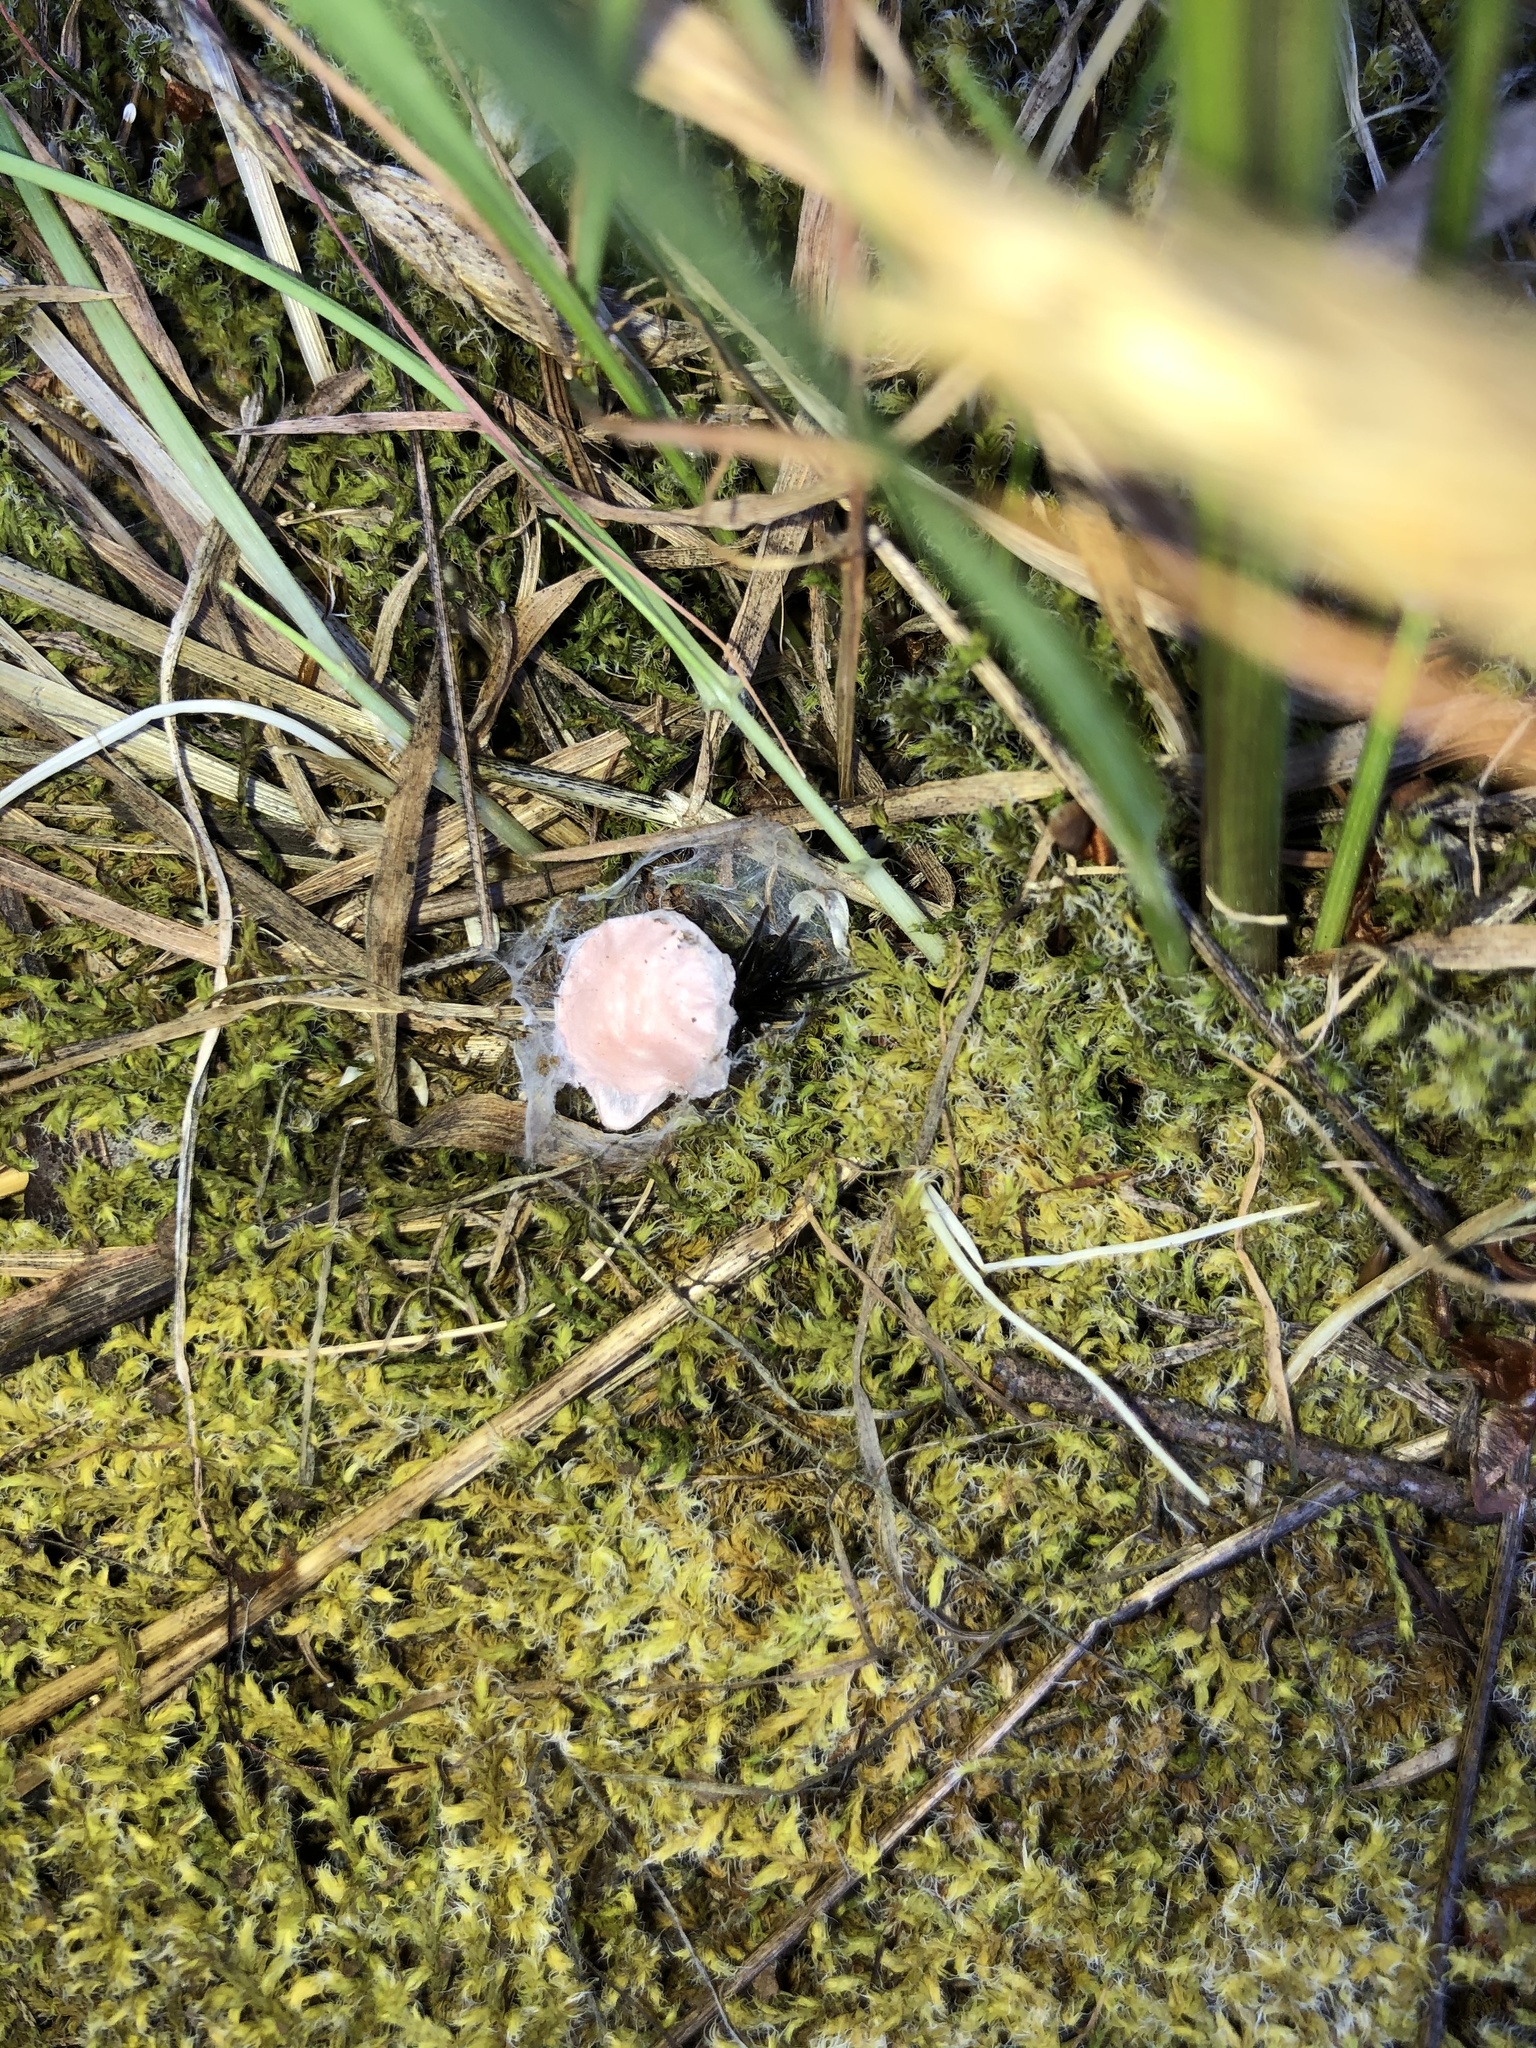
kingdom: Animalia
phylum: Arthropoda
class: Arachnida
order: Araneae
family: Antrodiaetidae
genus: Antrodiaetus
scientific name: Antrodiaetus pacificus
